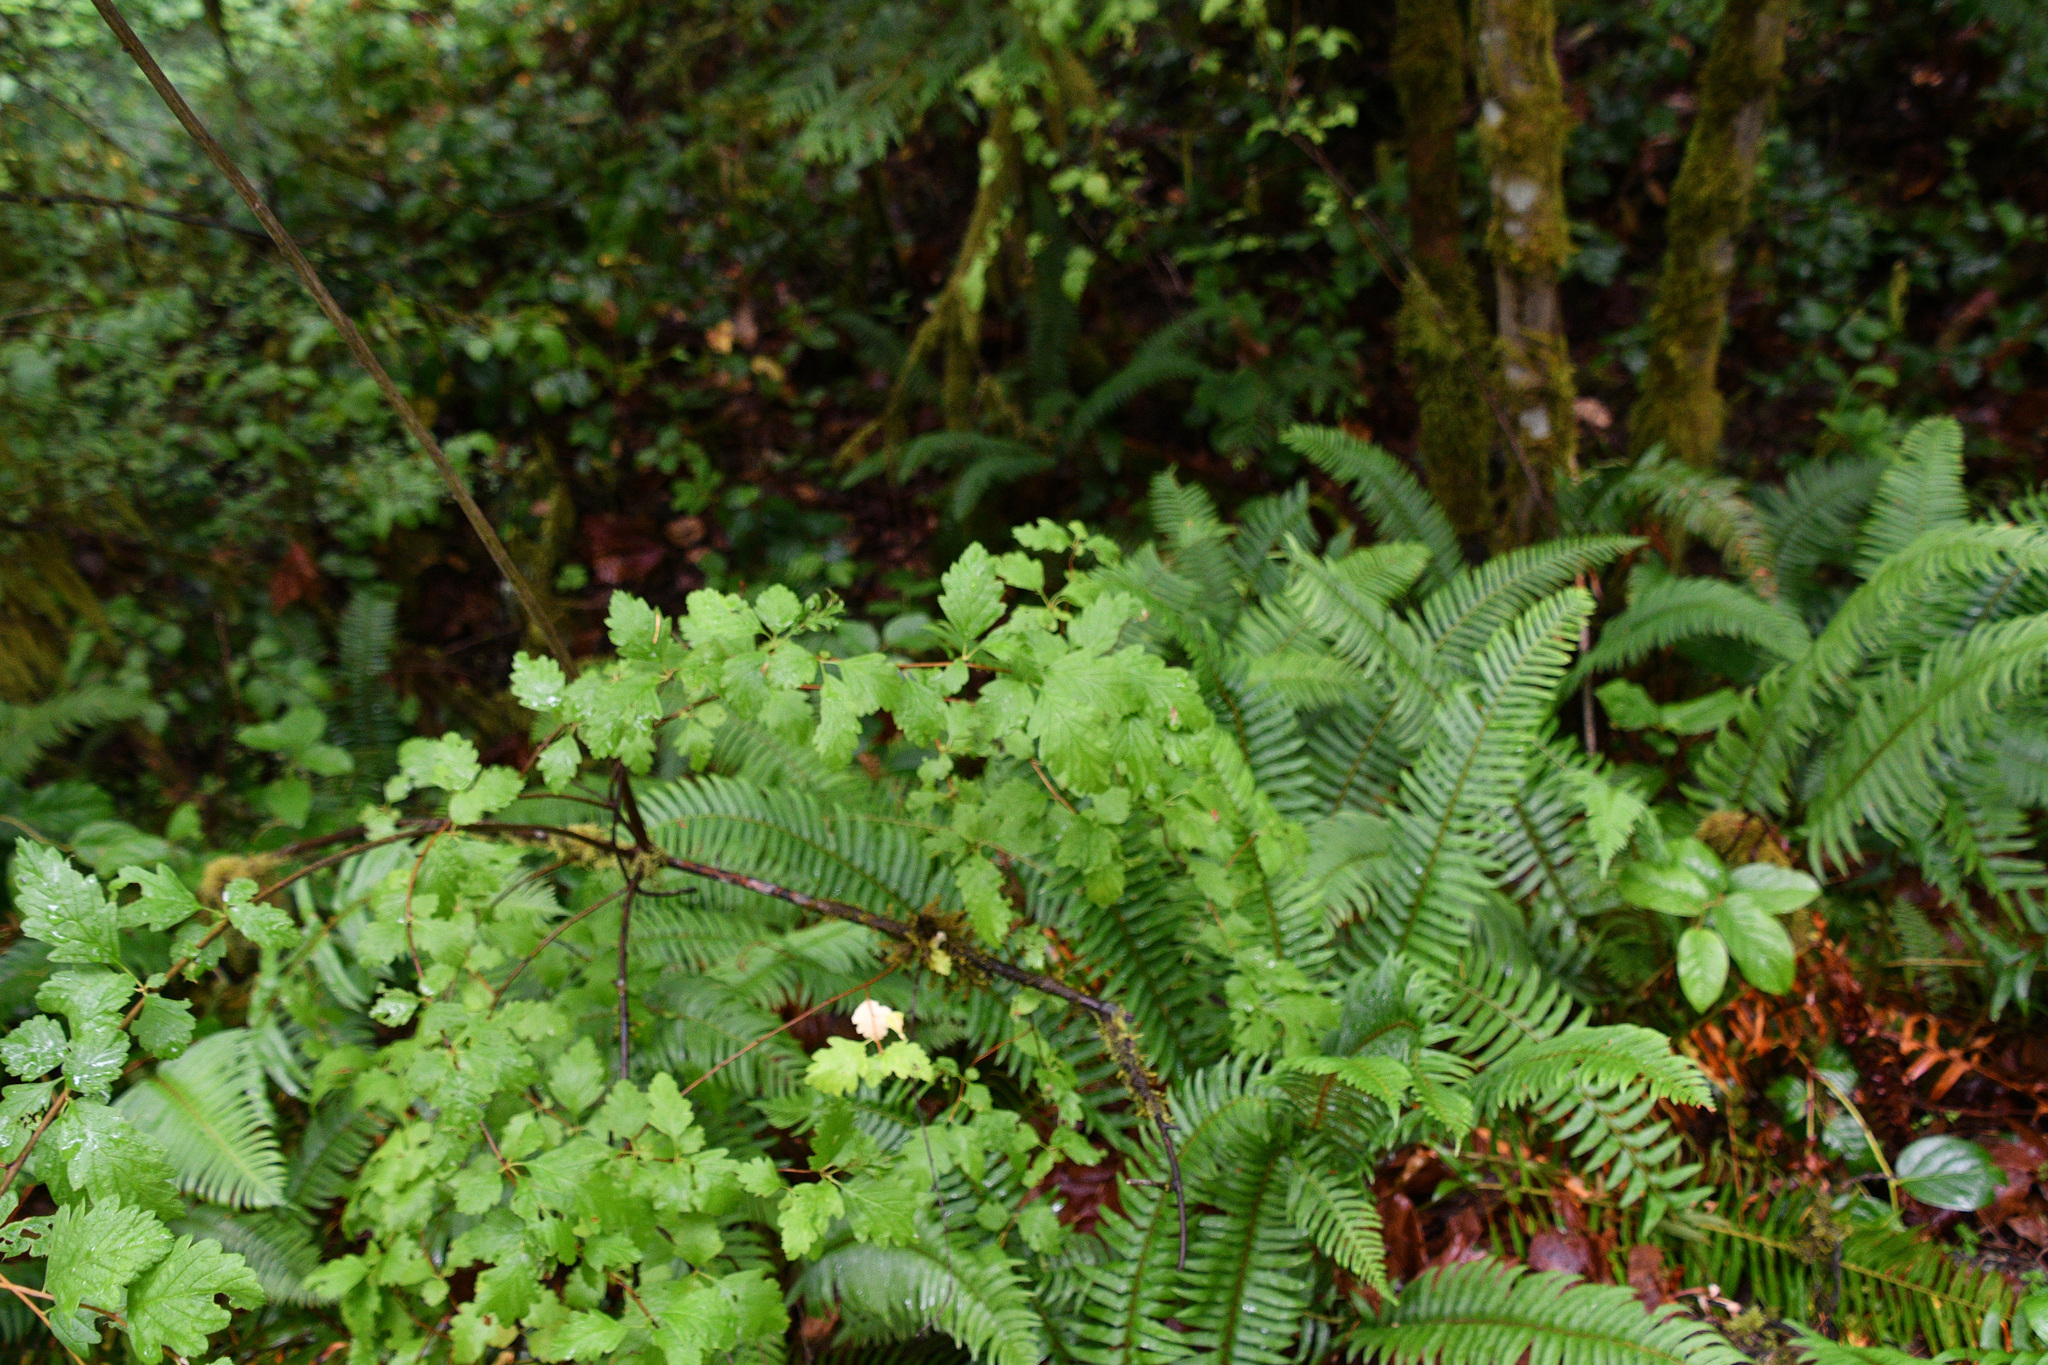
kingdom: Plantae
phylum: Tracheophyta
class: Magnoliopsida
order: Rosales
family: Rosaceae
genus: Holodiscus
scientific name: Holodiscus discolor
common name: Oceanspray
